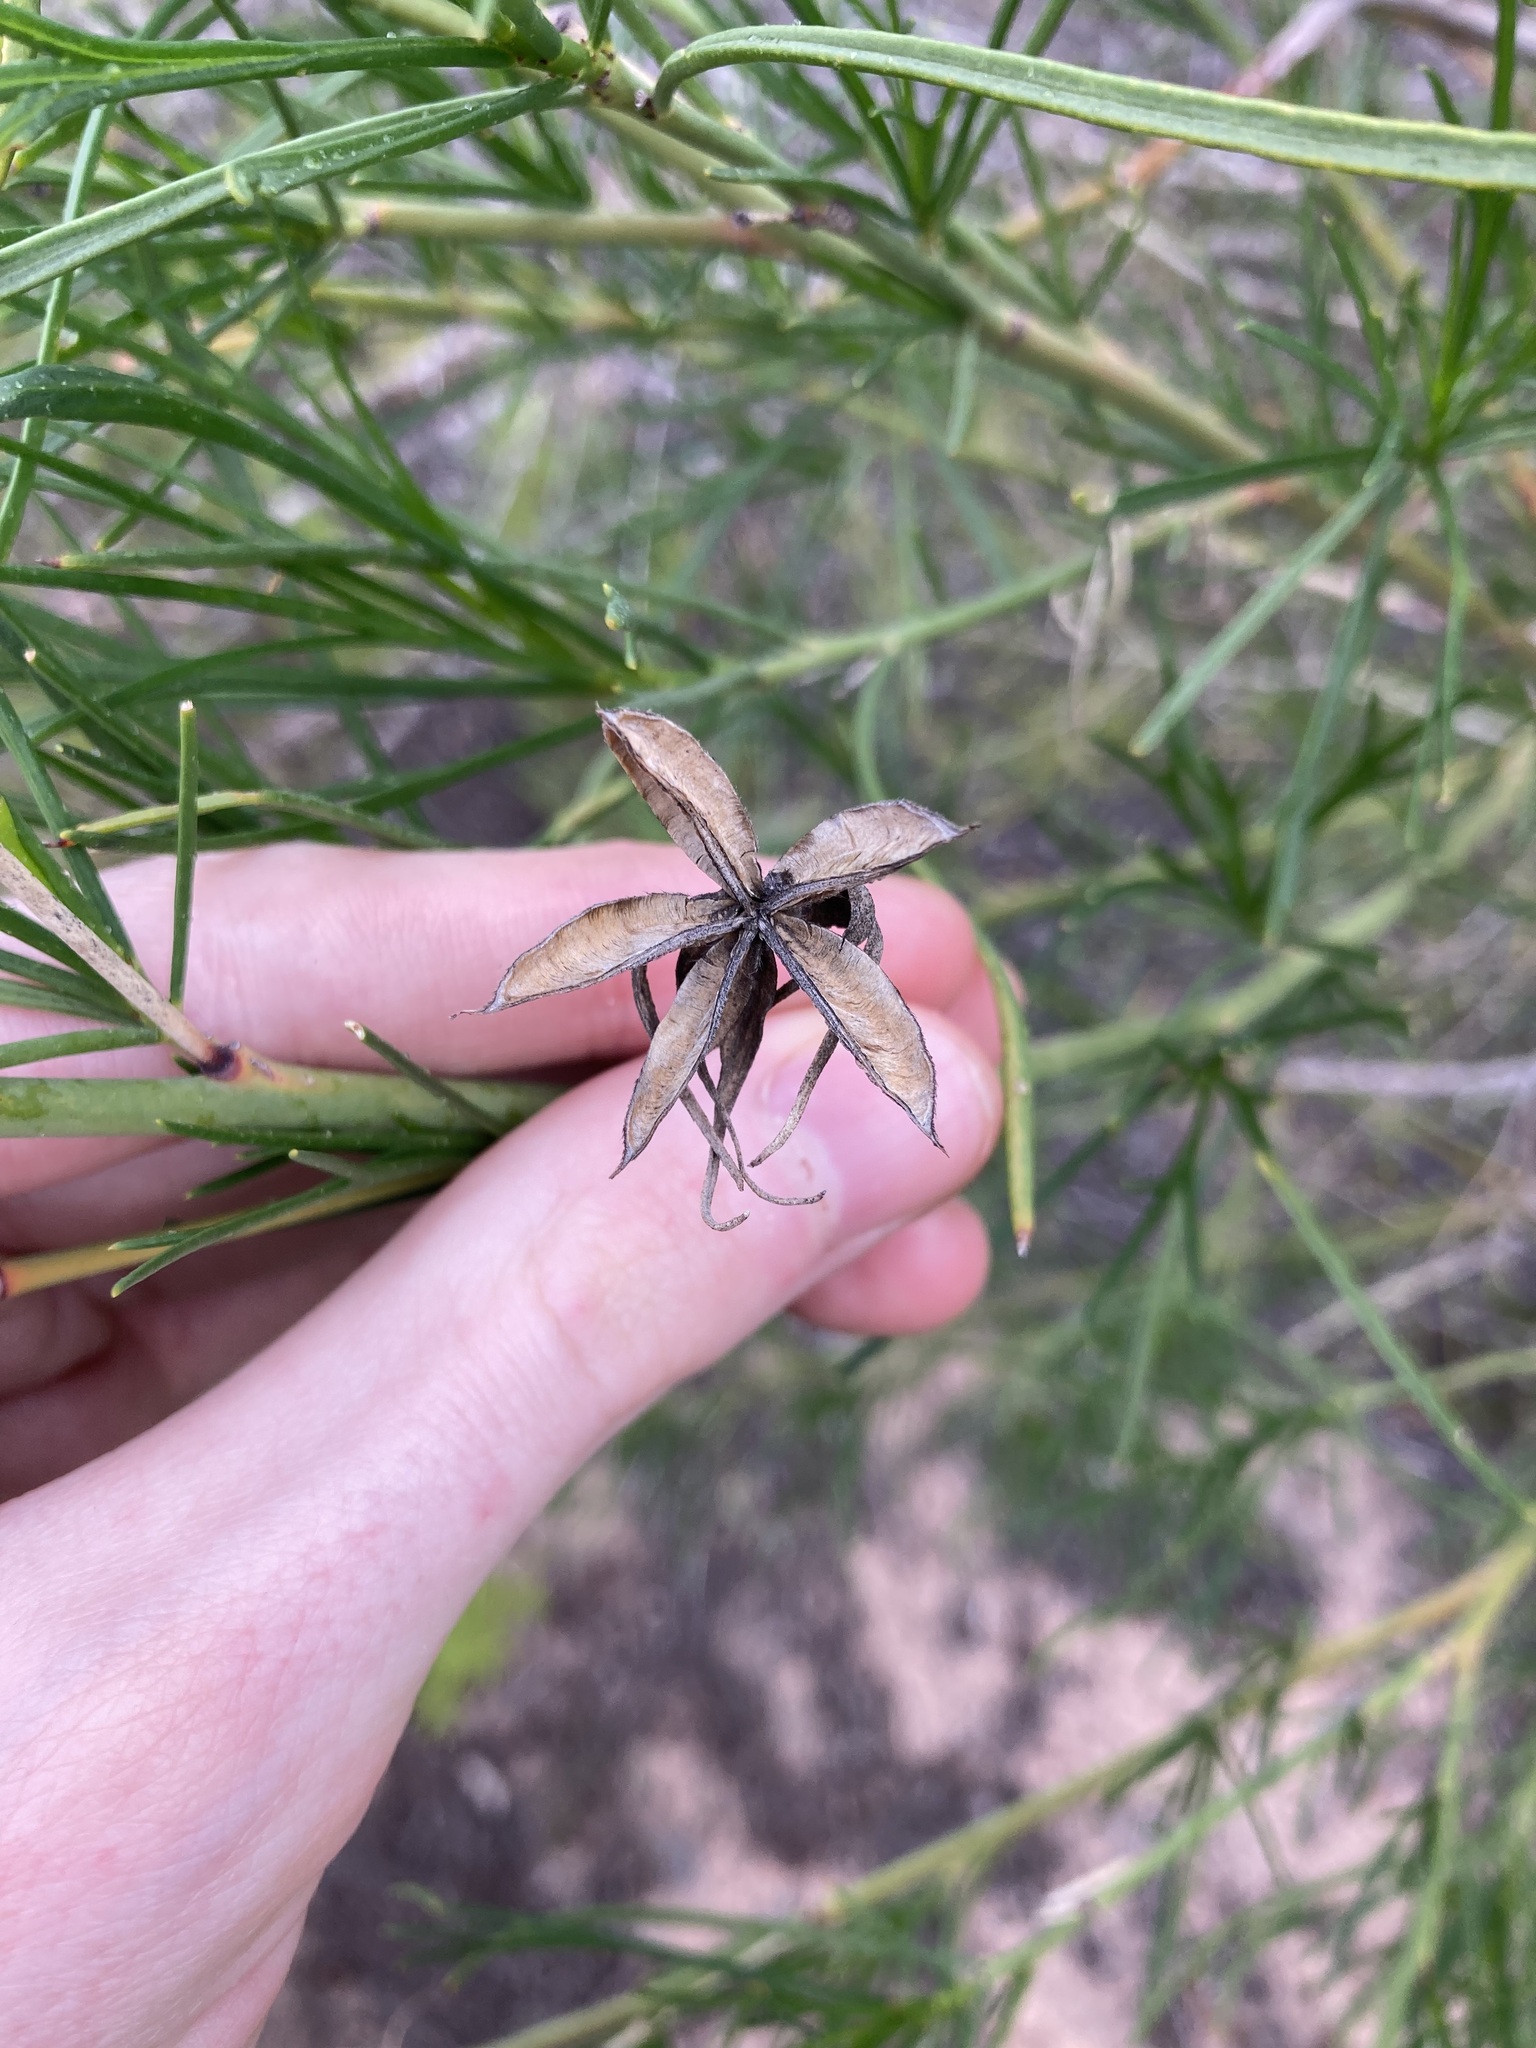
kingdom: Plantae
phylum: Tracheophyta
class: Magnoliopsida
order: Malvales
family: Malvaceae
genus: Hibiscus
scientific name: Hibiscus hakeifolius
